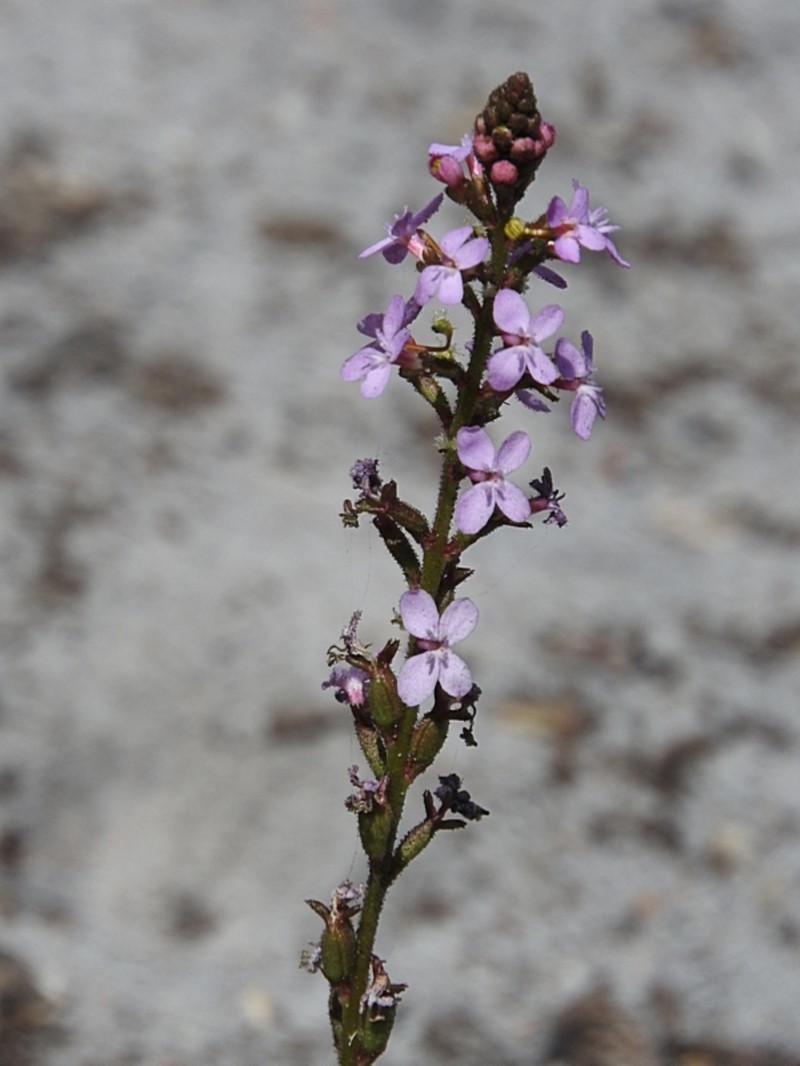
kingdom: Plantae
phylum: Tracheophyta
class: Magnoliopsida
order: Asterales
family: Stylidiaceae
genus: Stylidium
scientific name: Stylidium armeria
